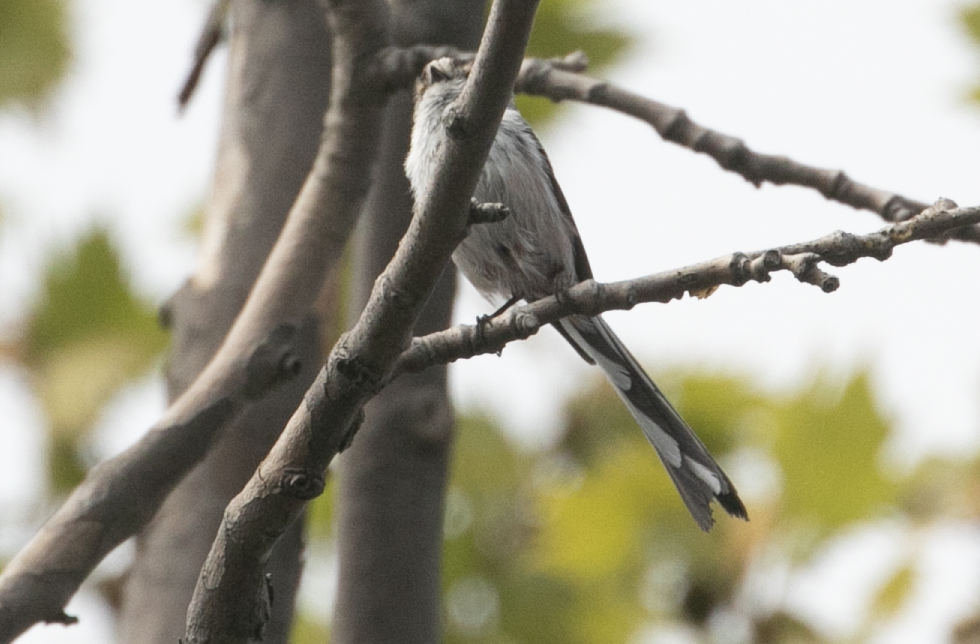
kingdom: Animalia
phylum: Chordata
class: Aves
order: Passeriformes
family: Aegithalidae
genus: Aegithalos
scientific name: Aegithalos caudatus
